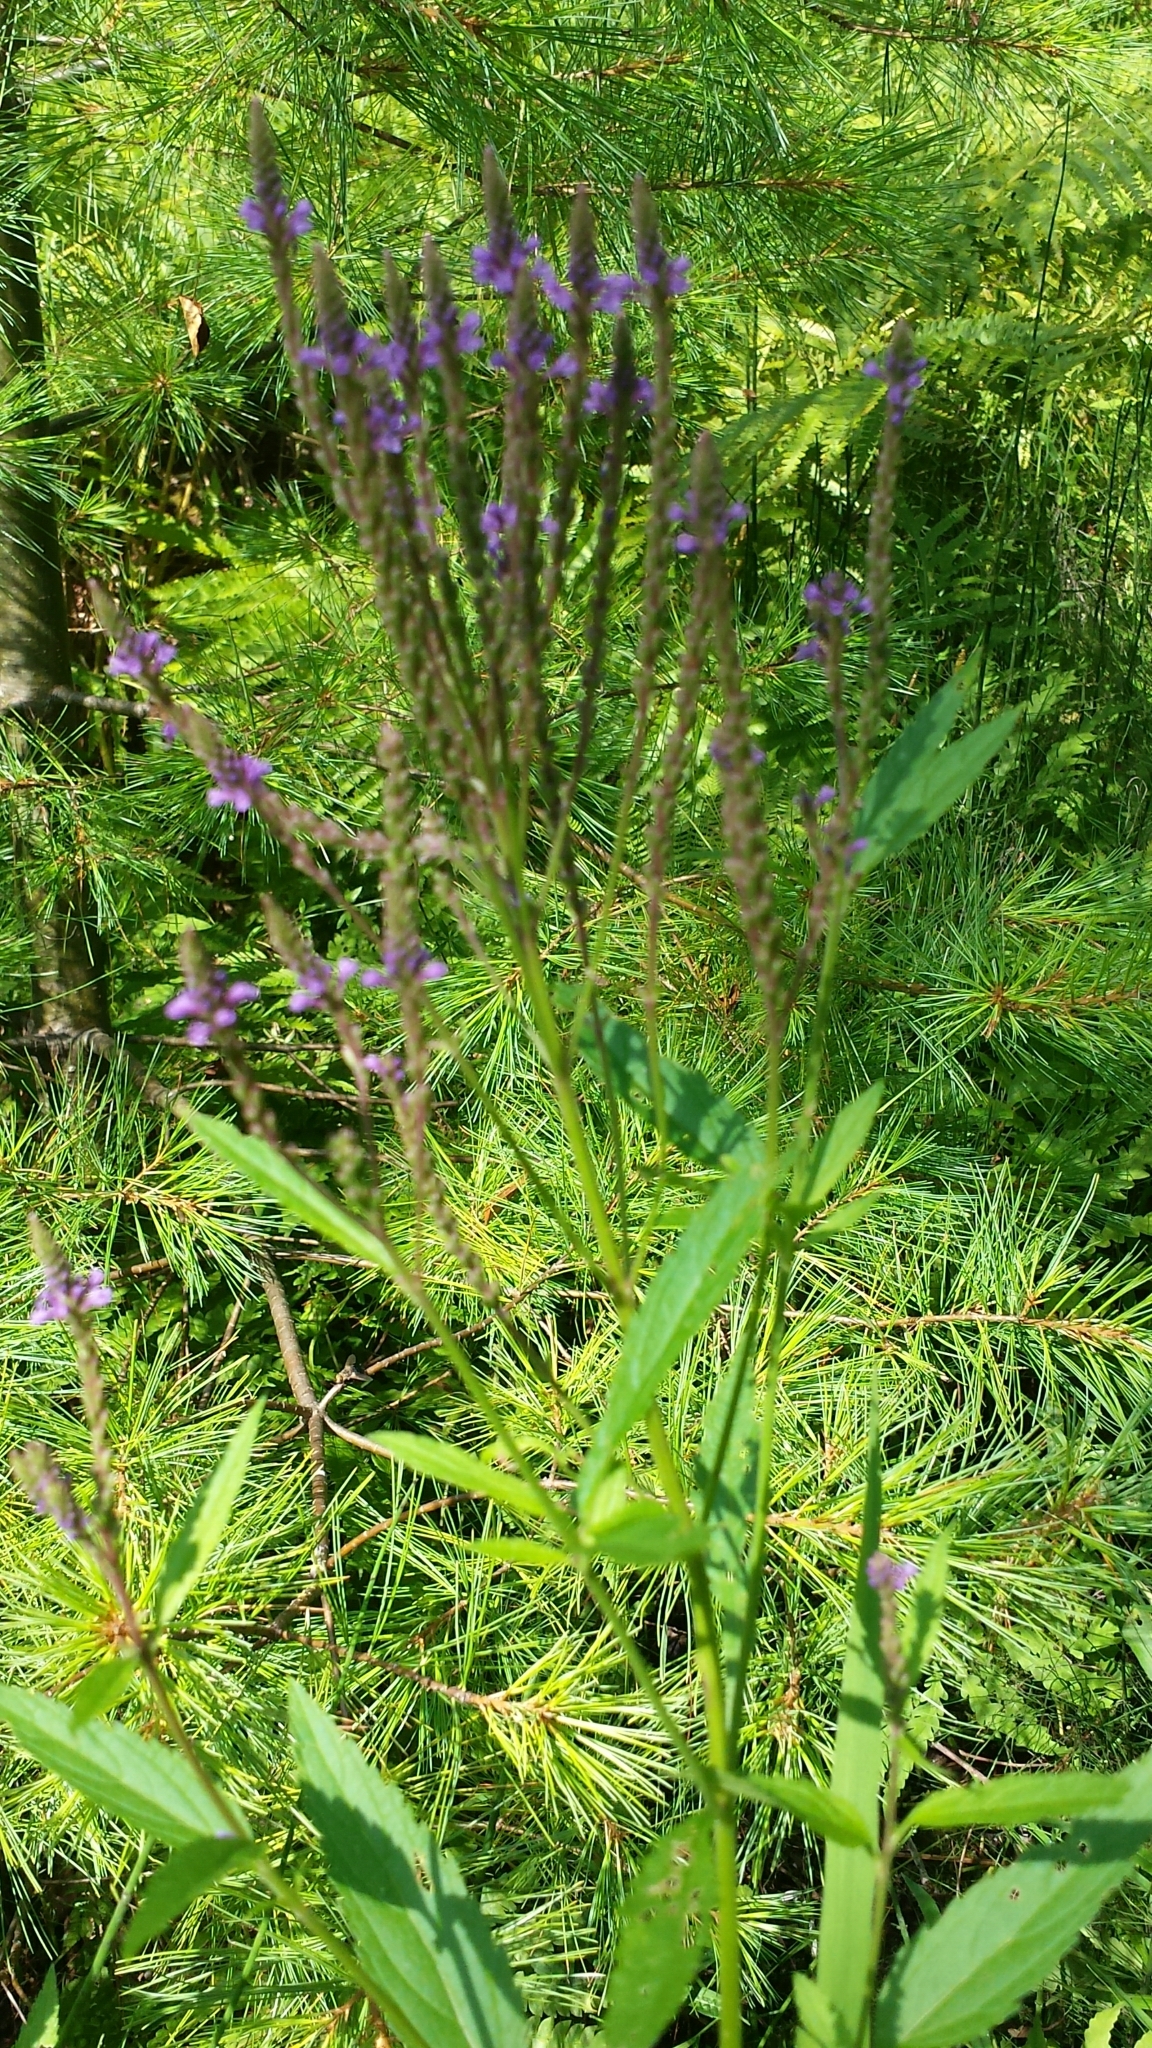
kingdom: Plantae
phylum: Tracheophyta
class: Magnoliopsida
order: Lamiales
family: Verbenaceae
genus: Verbena
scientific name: Verbena hastata
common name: American blue vervain
